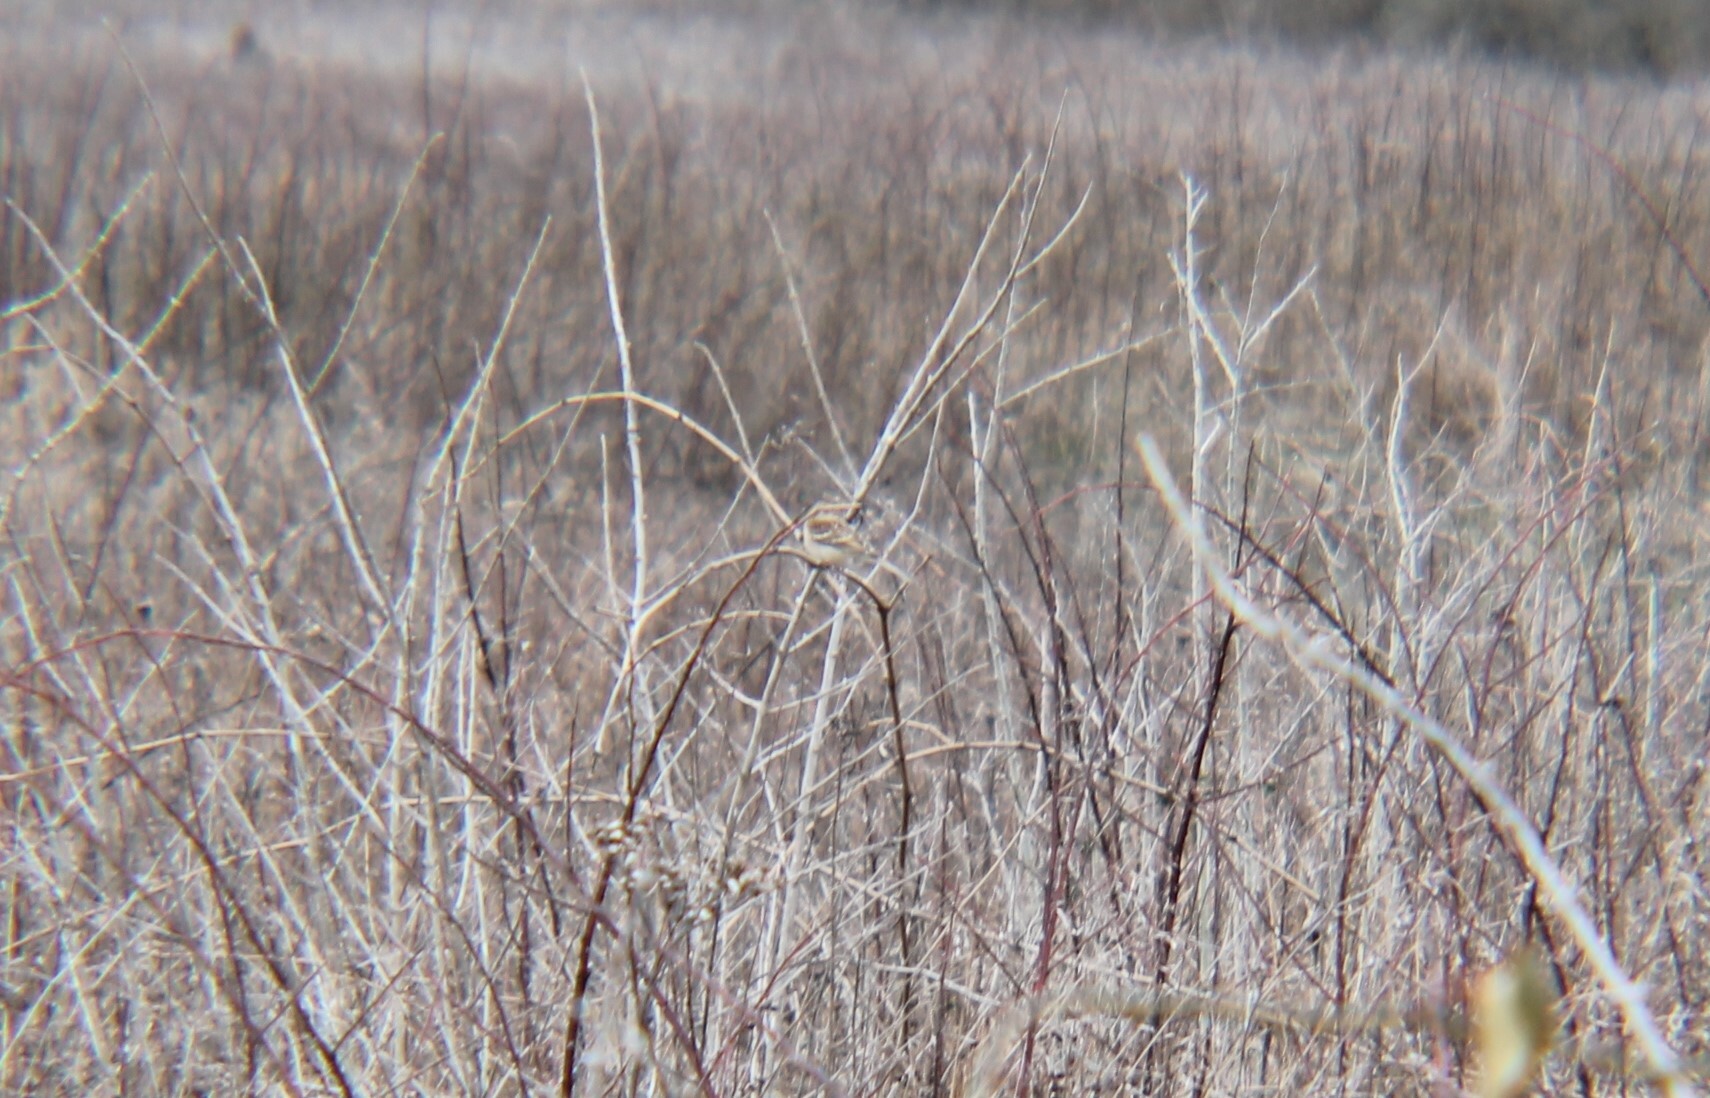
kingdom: Animalia
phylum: Chordata
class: Aves
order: Passeriformes
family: Passerellidae
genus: Spizella
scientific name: Spizella pusilla
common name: Field sparrow
